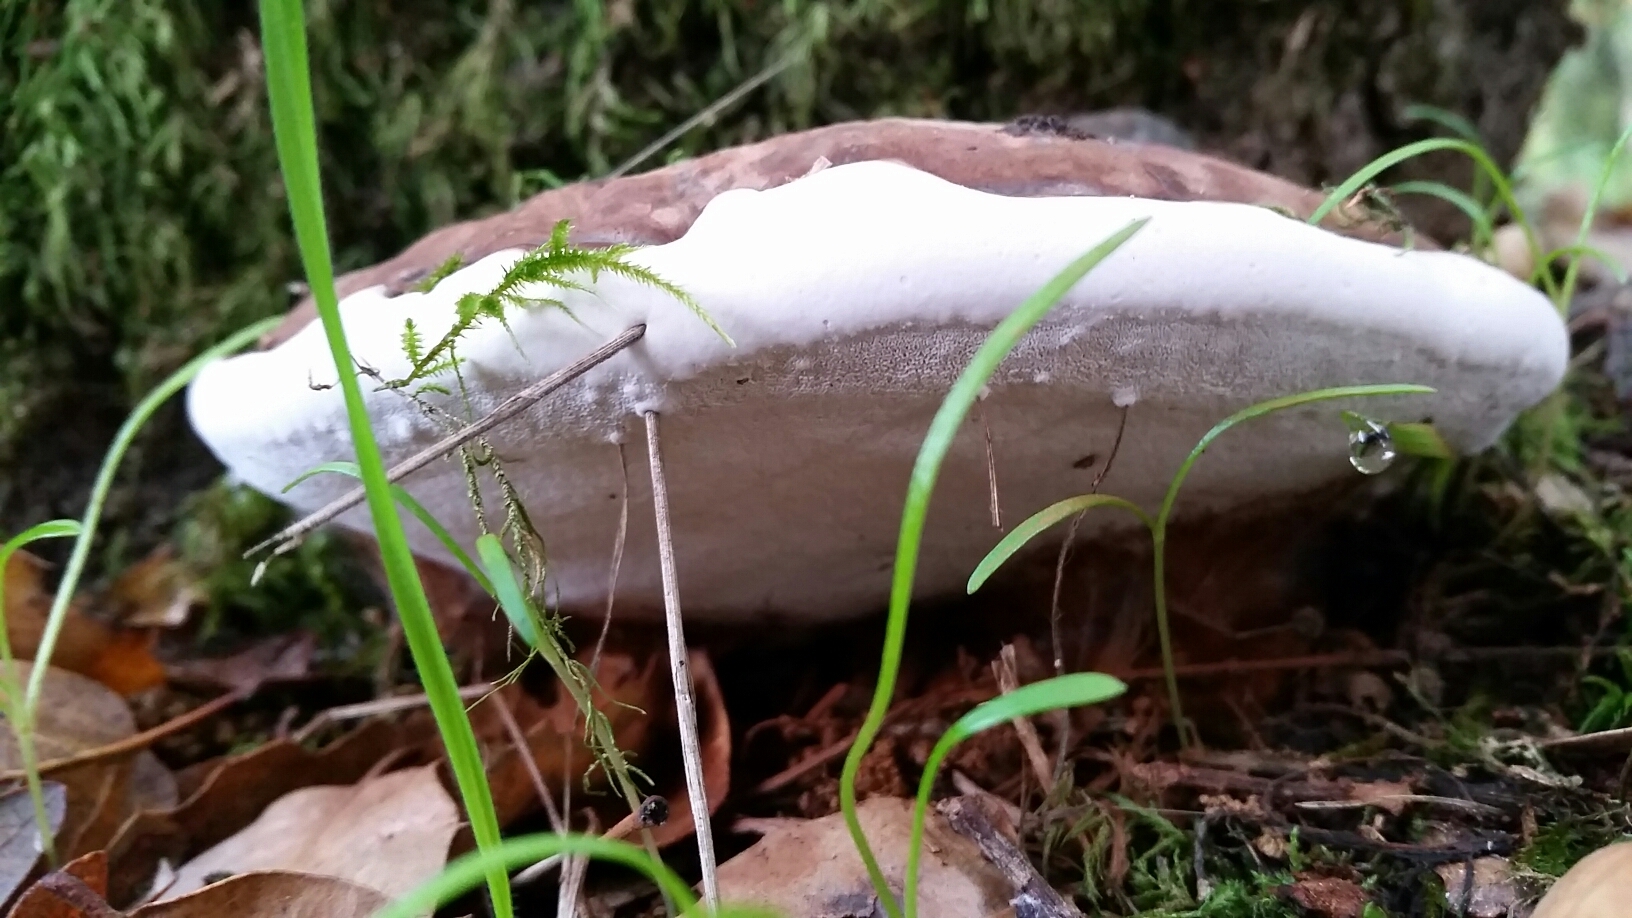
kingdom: Fungi
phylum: Basidiomycota
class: Agaricomycetes
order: Polyporales
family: Polyporaceae
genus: Ganoderma
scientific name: Ganoderma brownii
